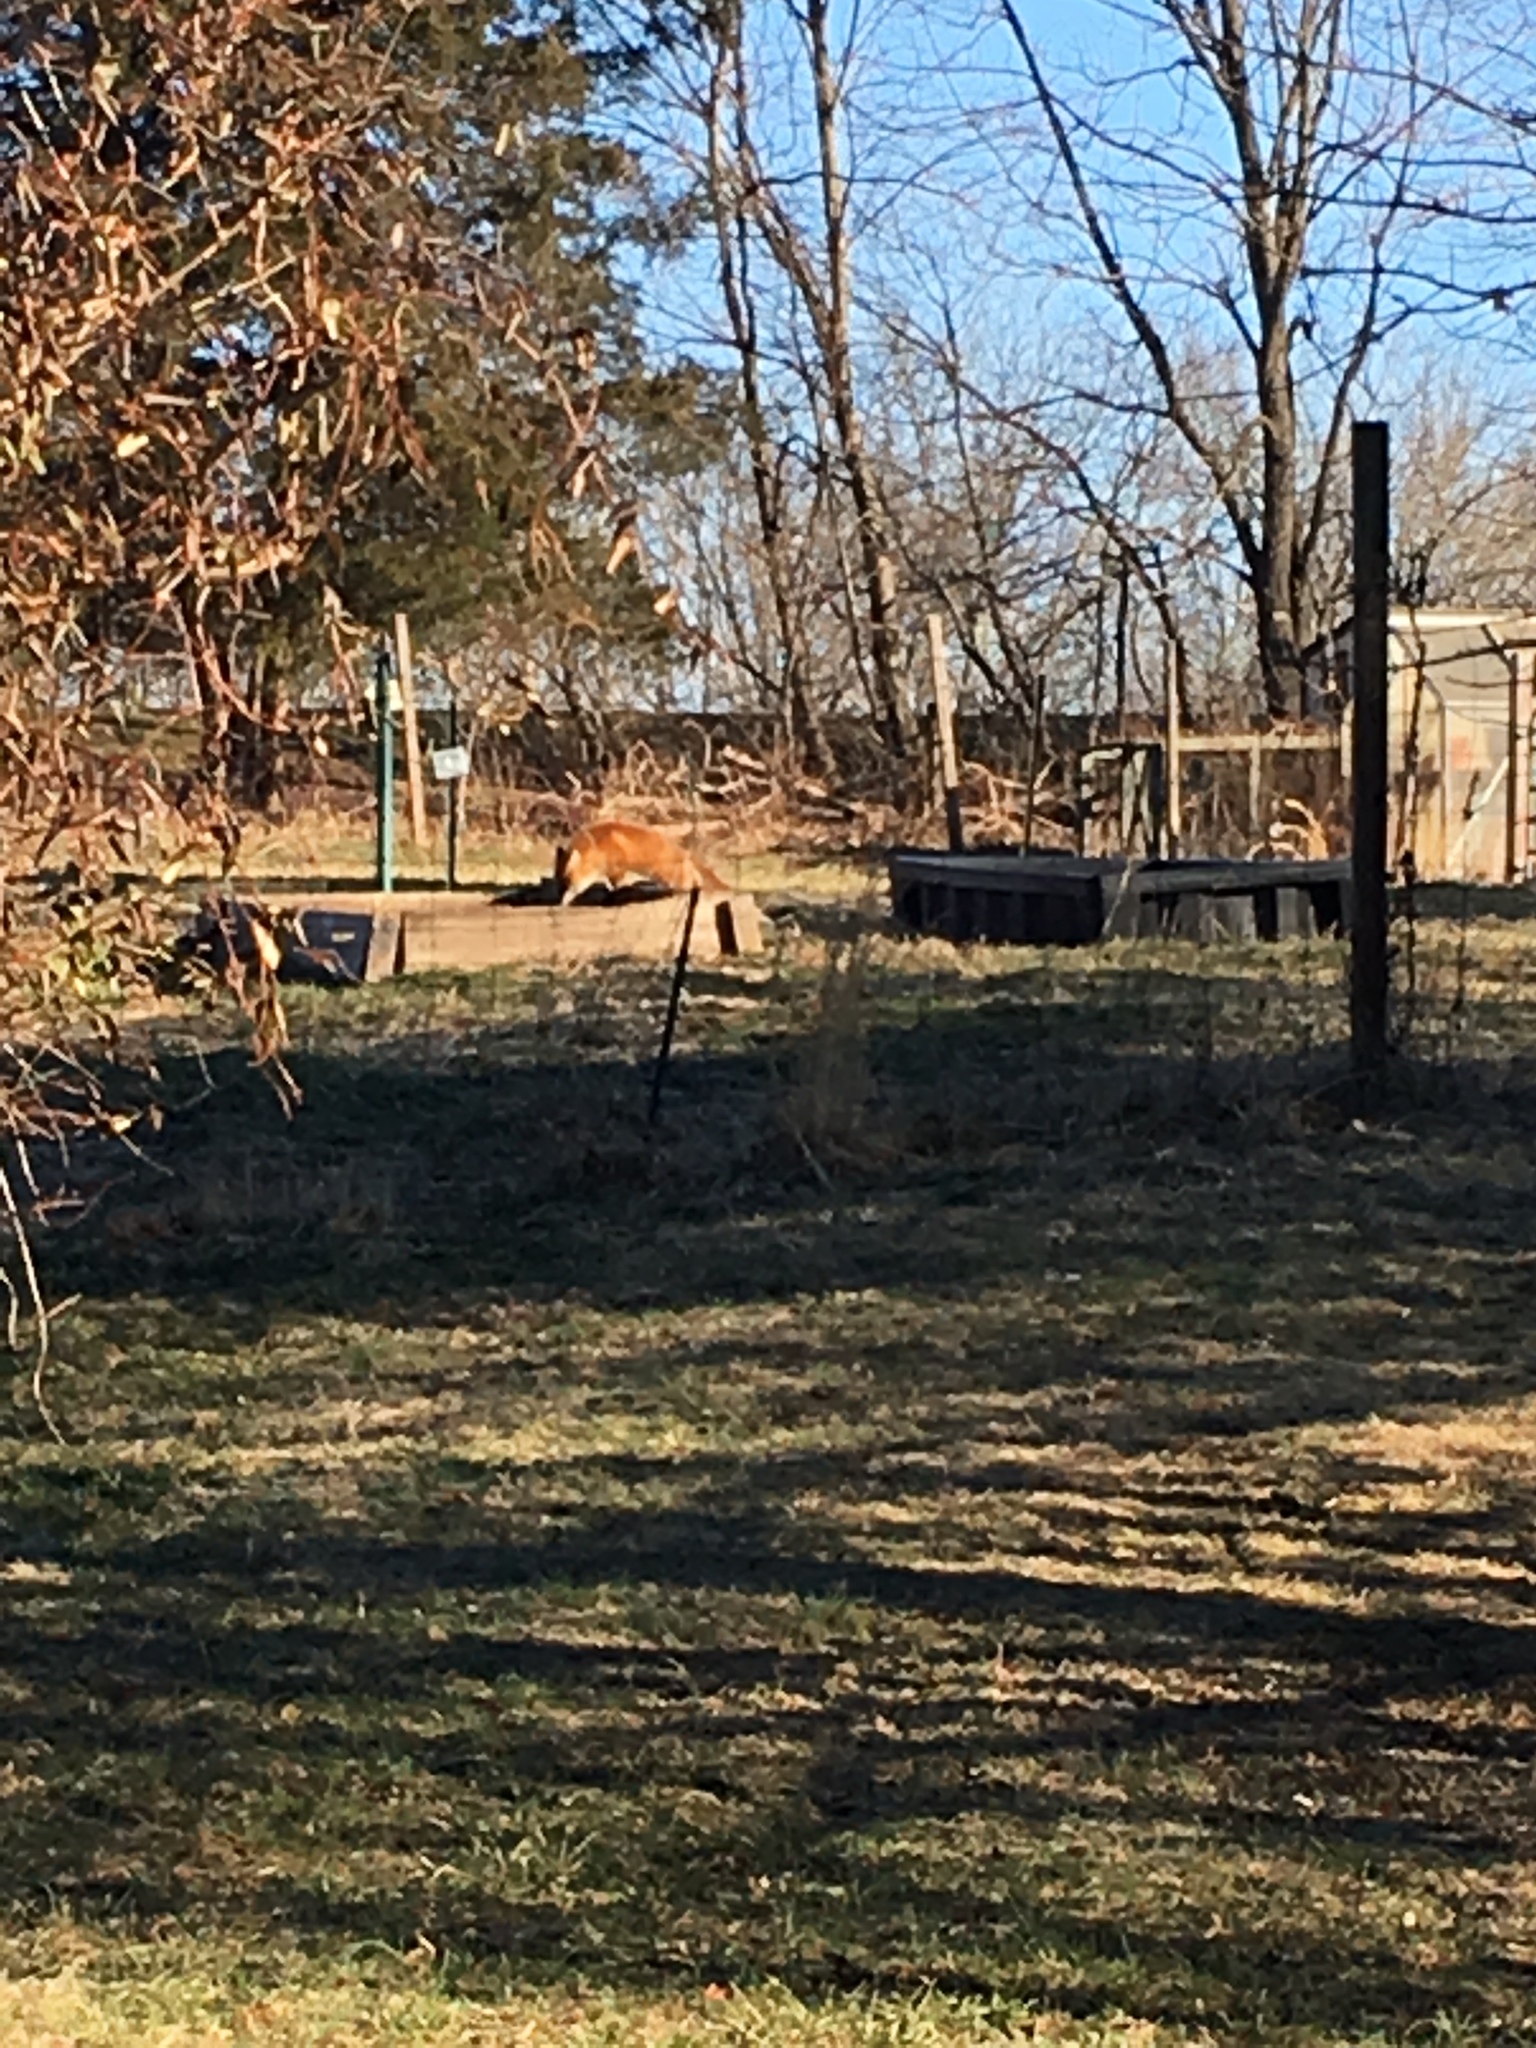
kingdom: Animalia
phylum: Chordata
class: Mammalia
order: Carnivora
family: Canidae
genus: Vulpes
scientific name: Vulpes vulpes
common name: Red fox
